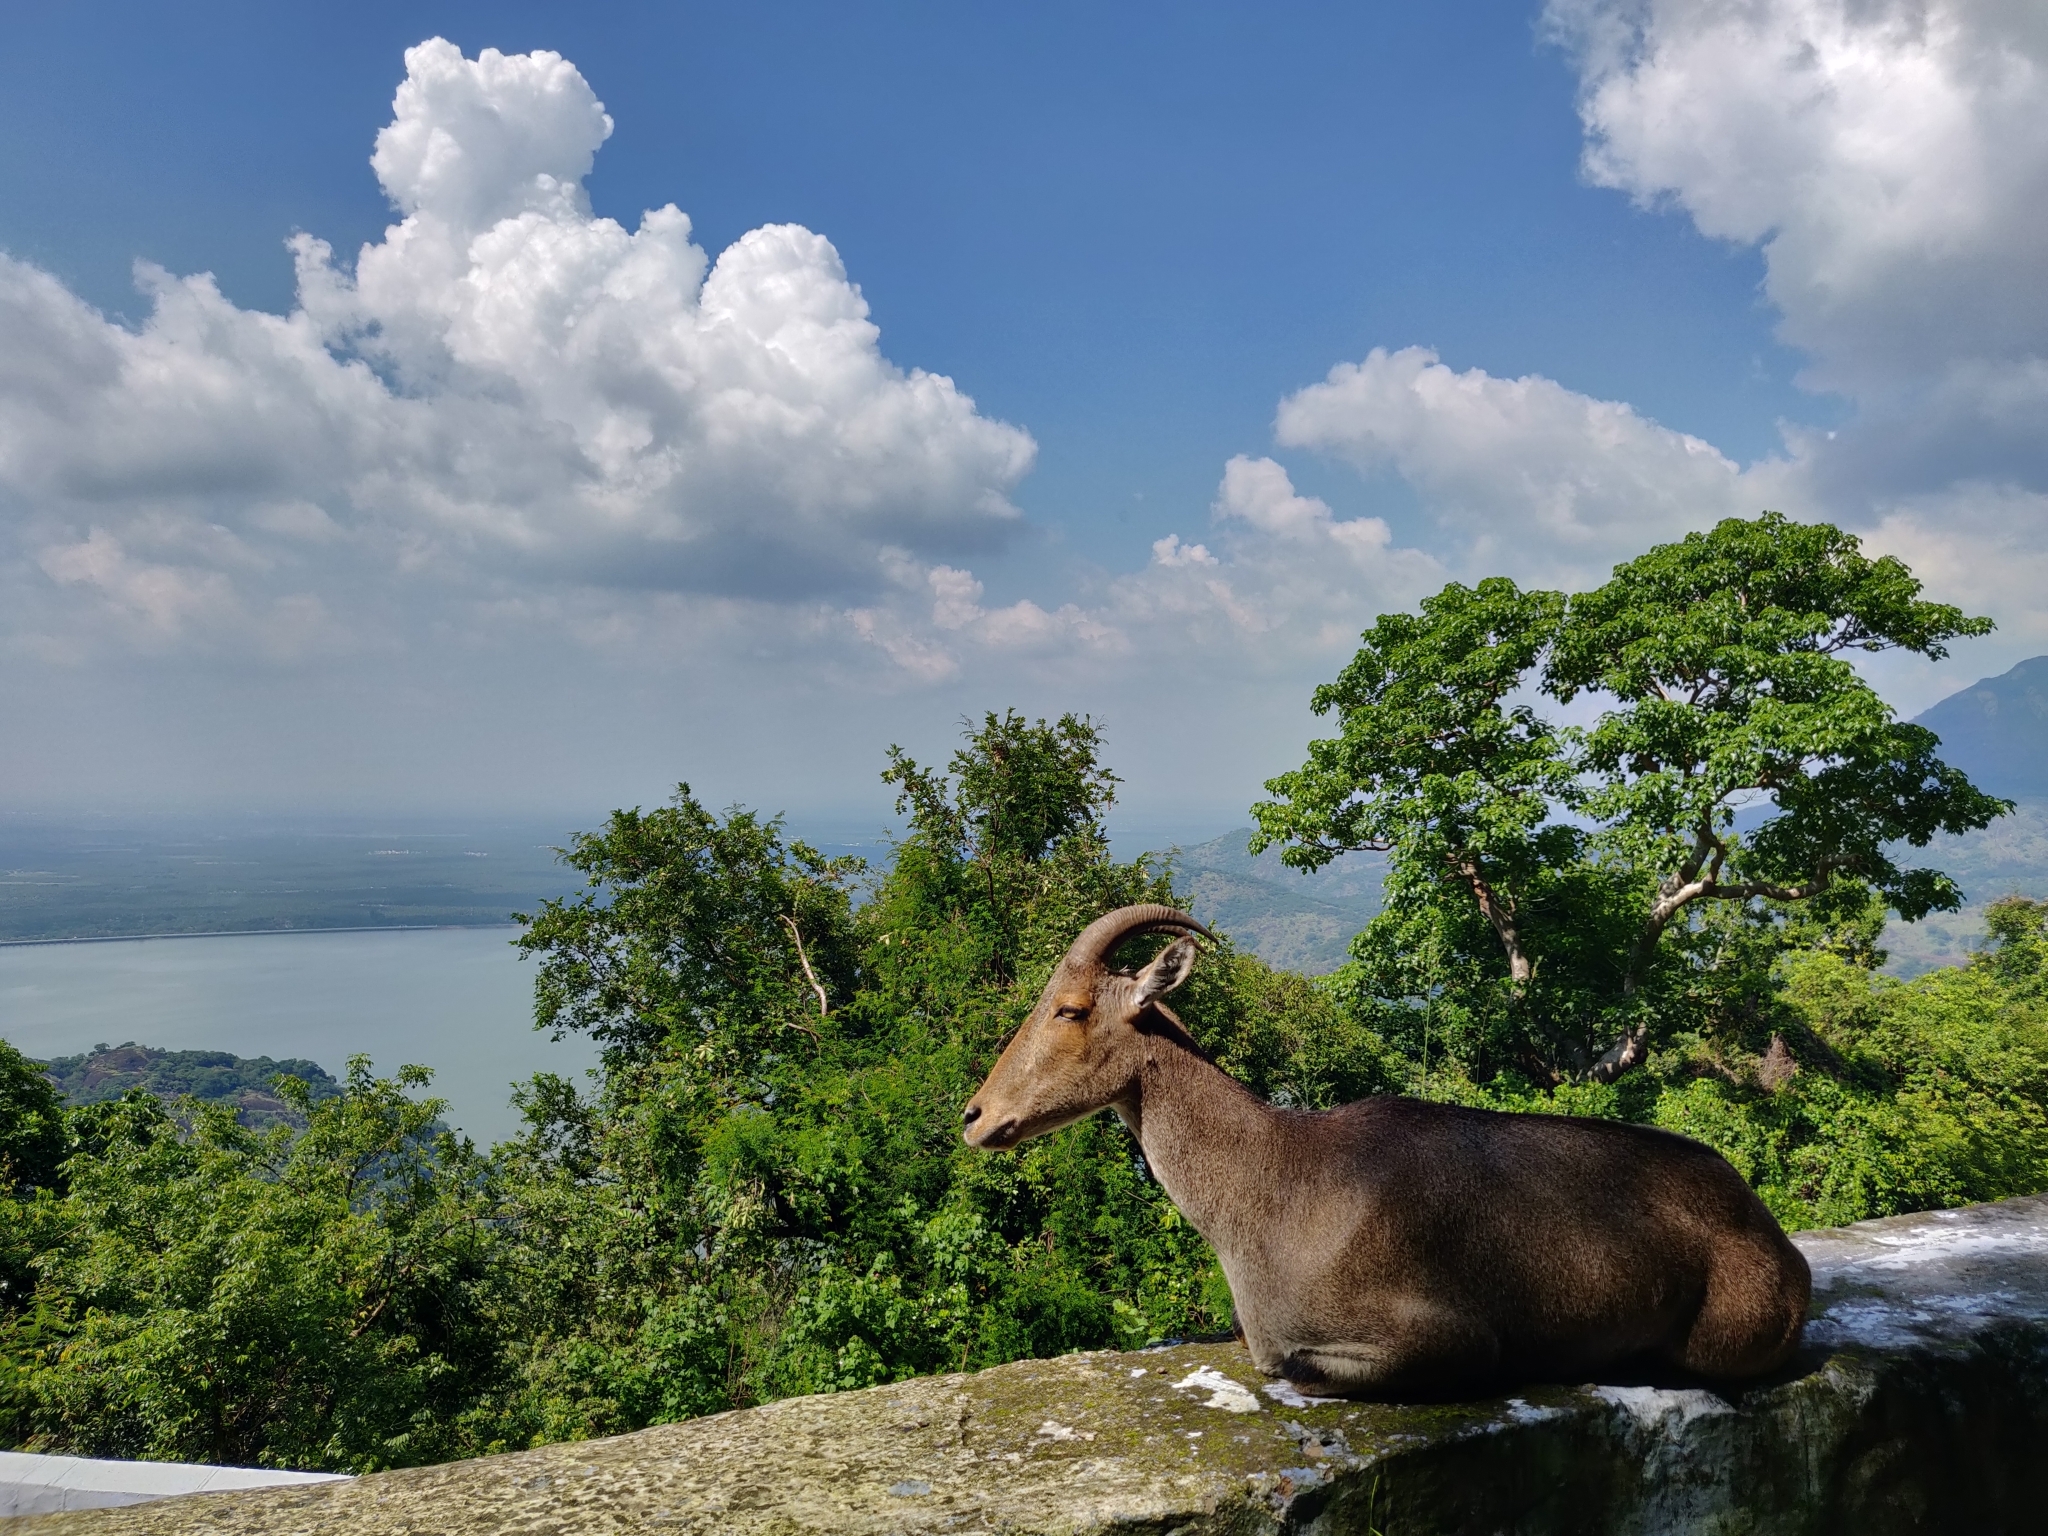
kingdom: Animalia
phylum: Chordata
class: Mammalia
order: Artiodactyla
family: Bovidae
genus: Hemitragus
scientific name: Hemitragus hylocrius
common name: Nilgiri tahr
